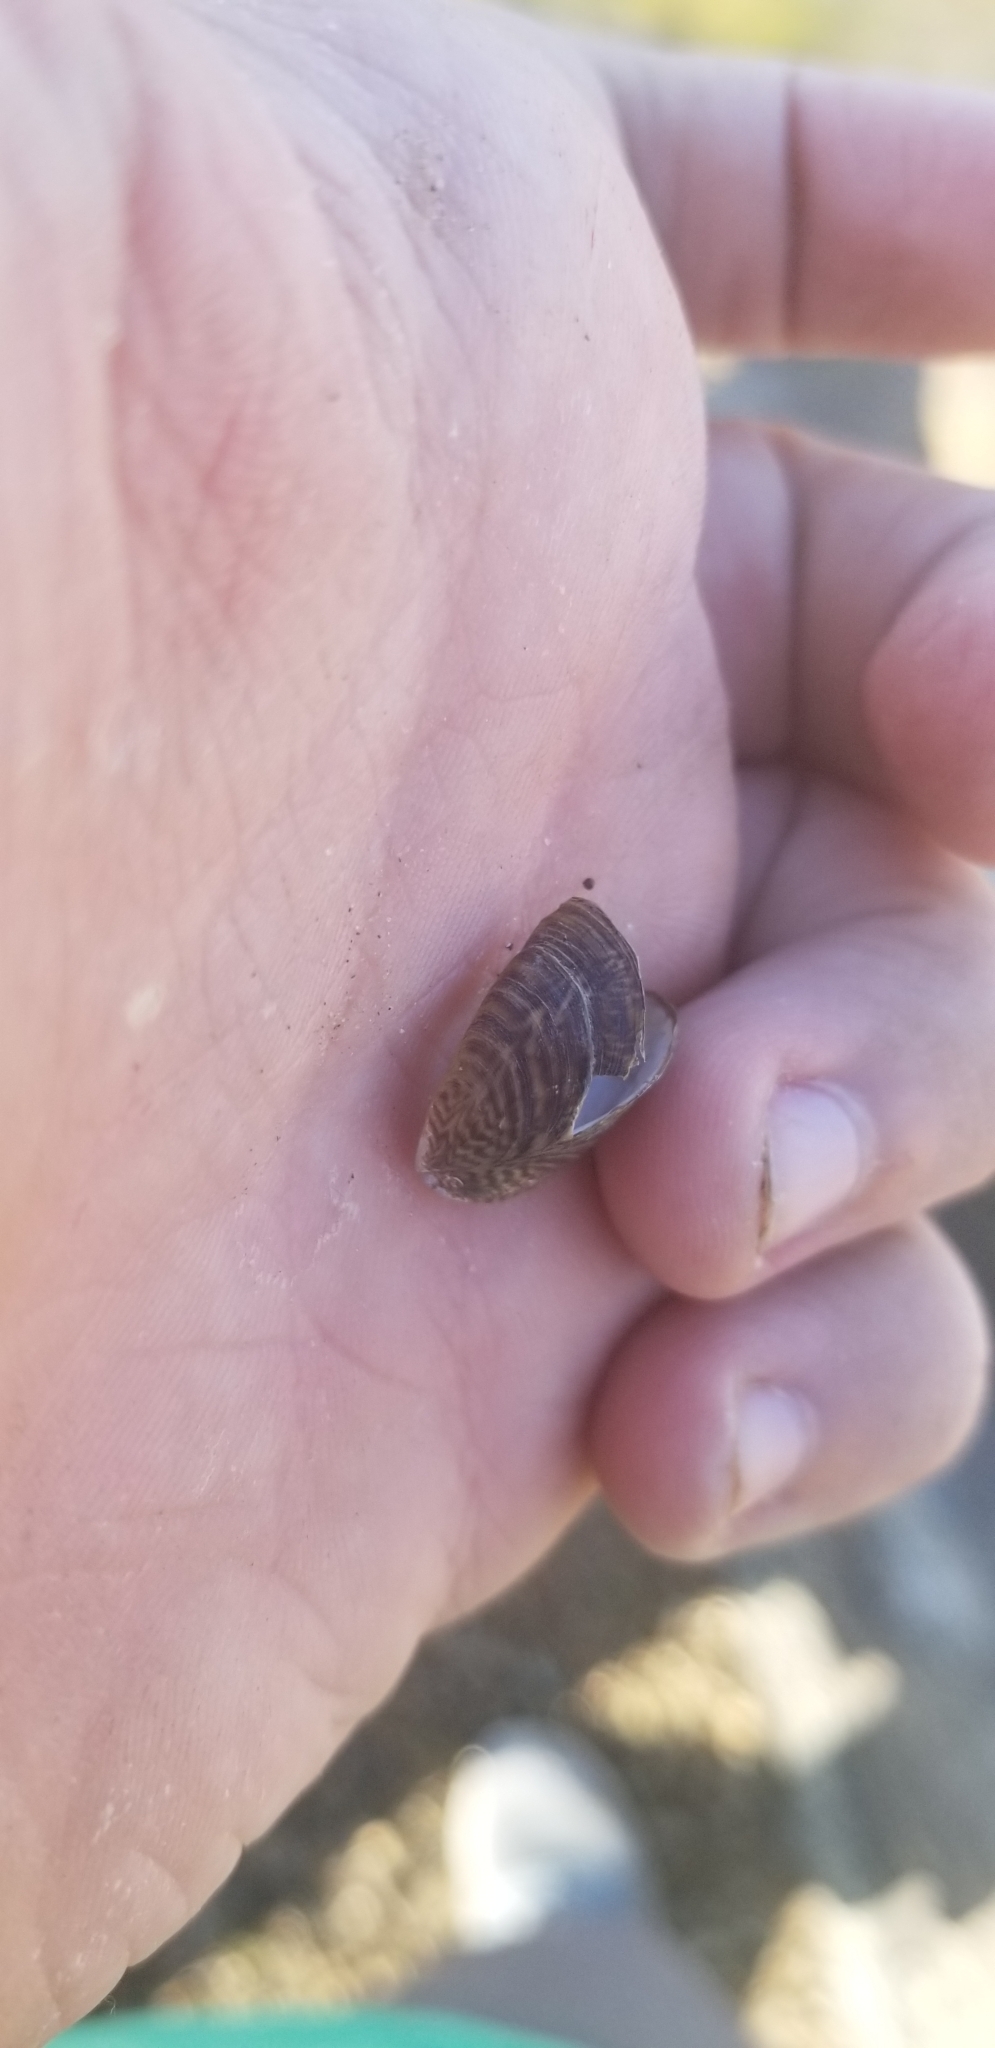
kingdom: Animalia
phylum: Mollusca
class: Bivalvia
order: Myida
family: Dreissenidae
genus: Dreissena
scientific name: Dreissena polymorpha
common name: Zebra mussel
